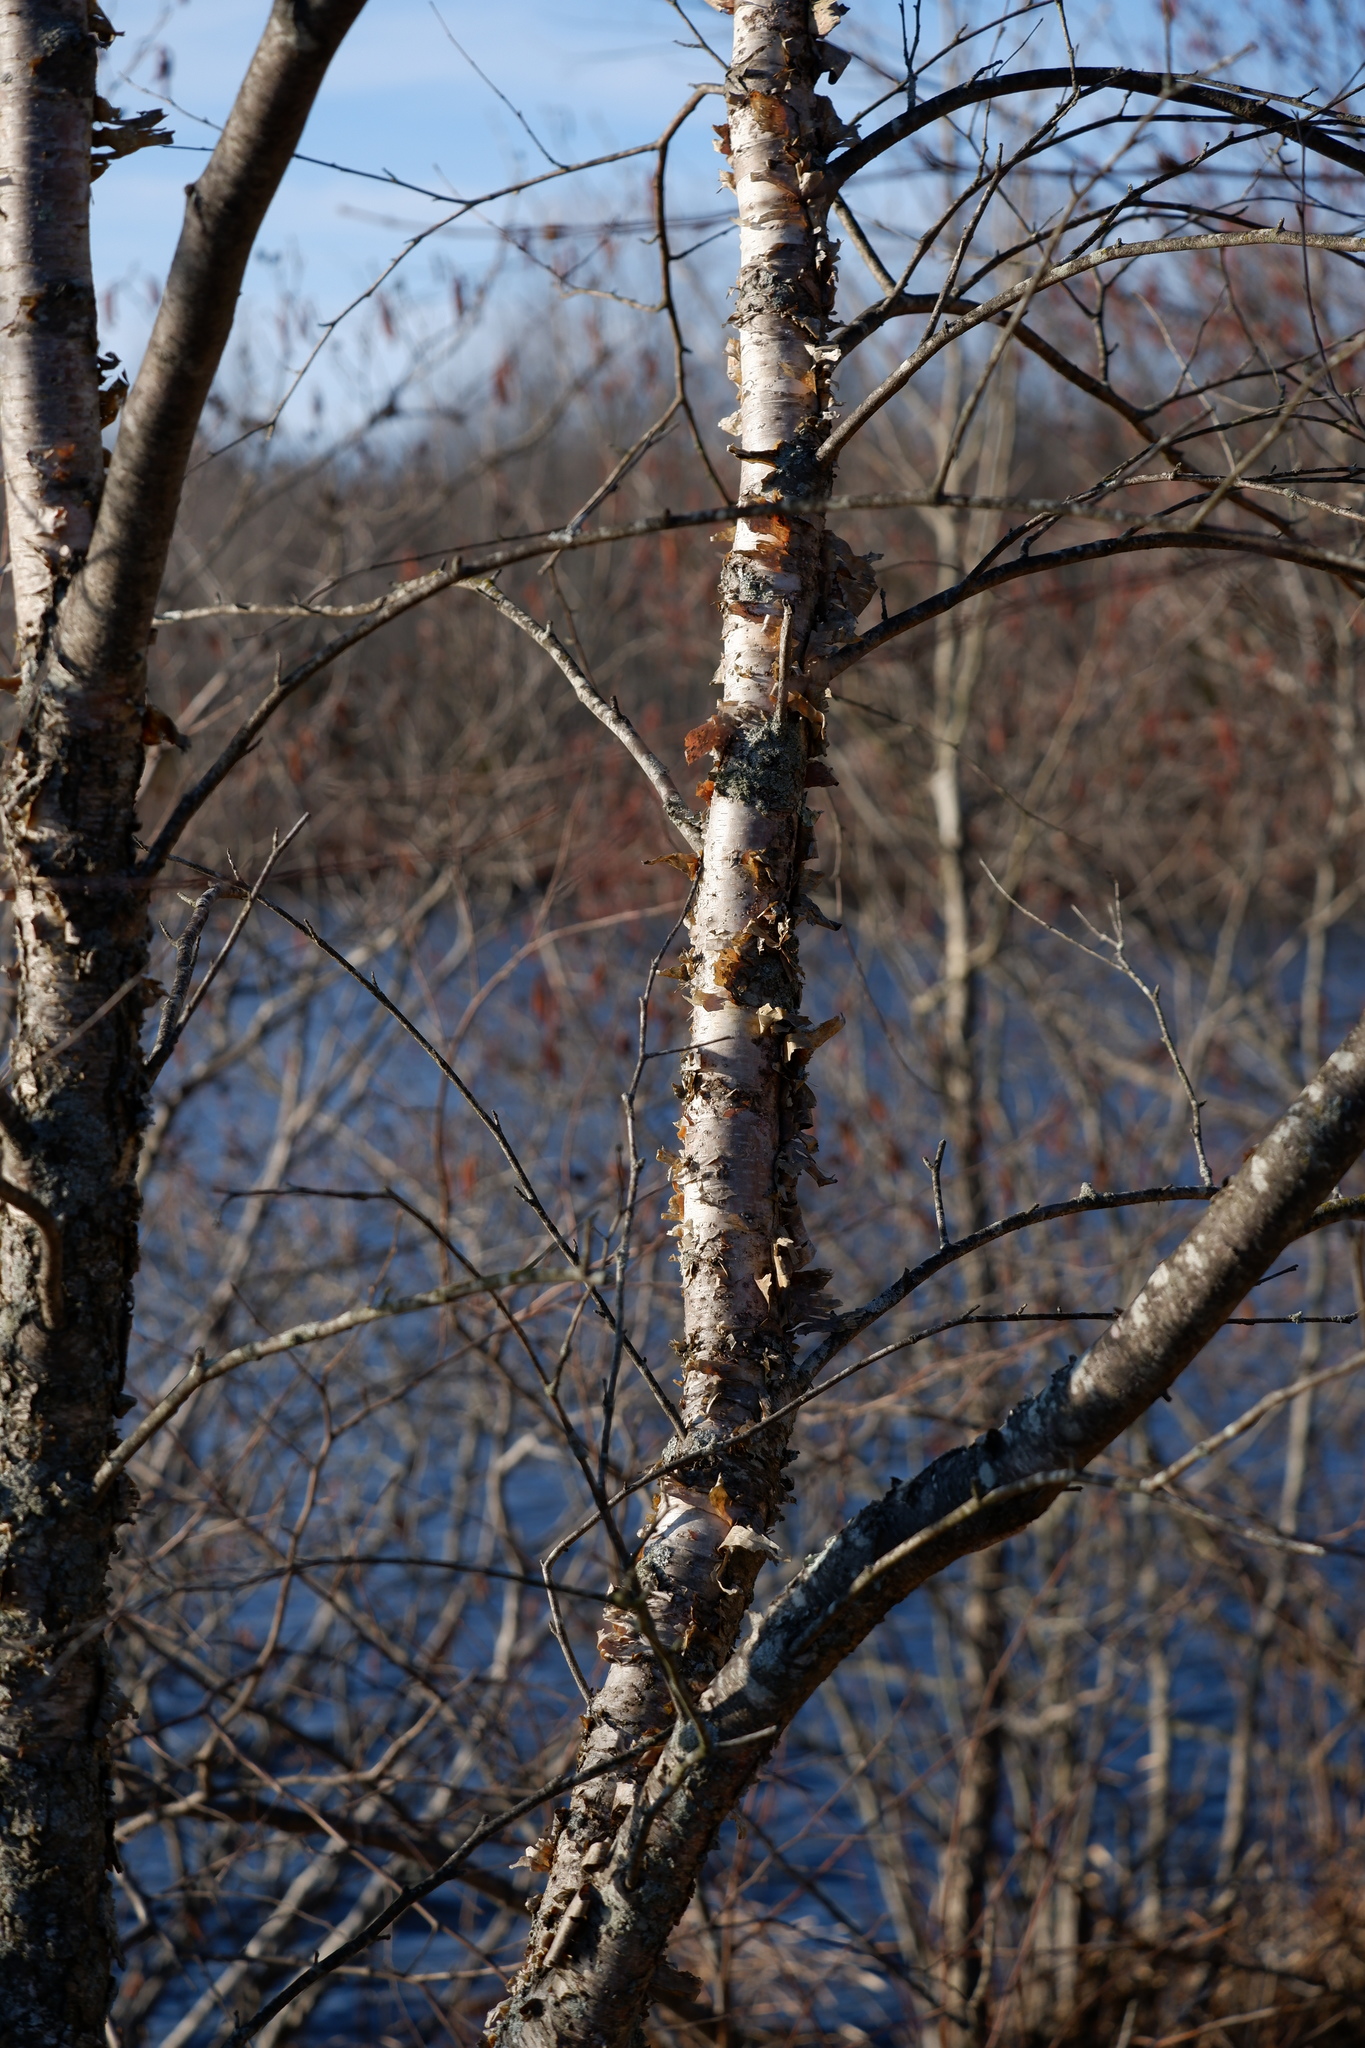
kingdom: Plantae
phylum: Tracheophyta
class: Magnoliopsida
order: Fagales
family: Betulaceae
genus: Betula
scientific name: Betula nigra
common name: Black birch
